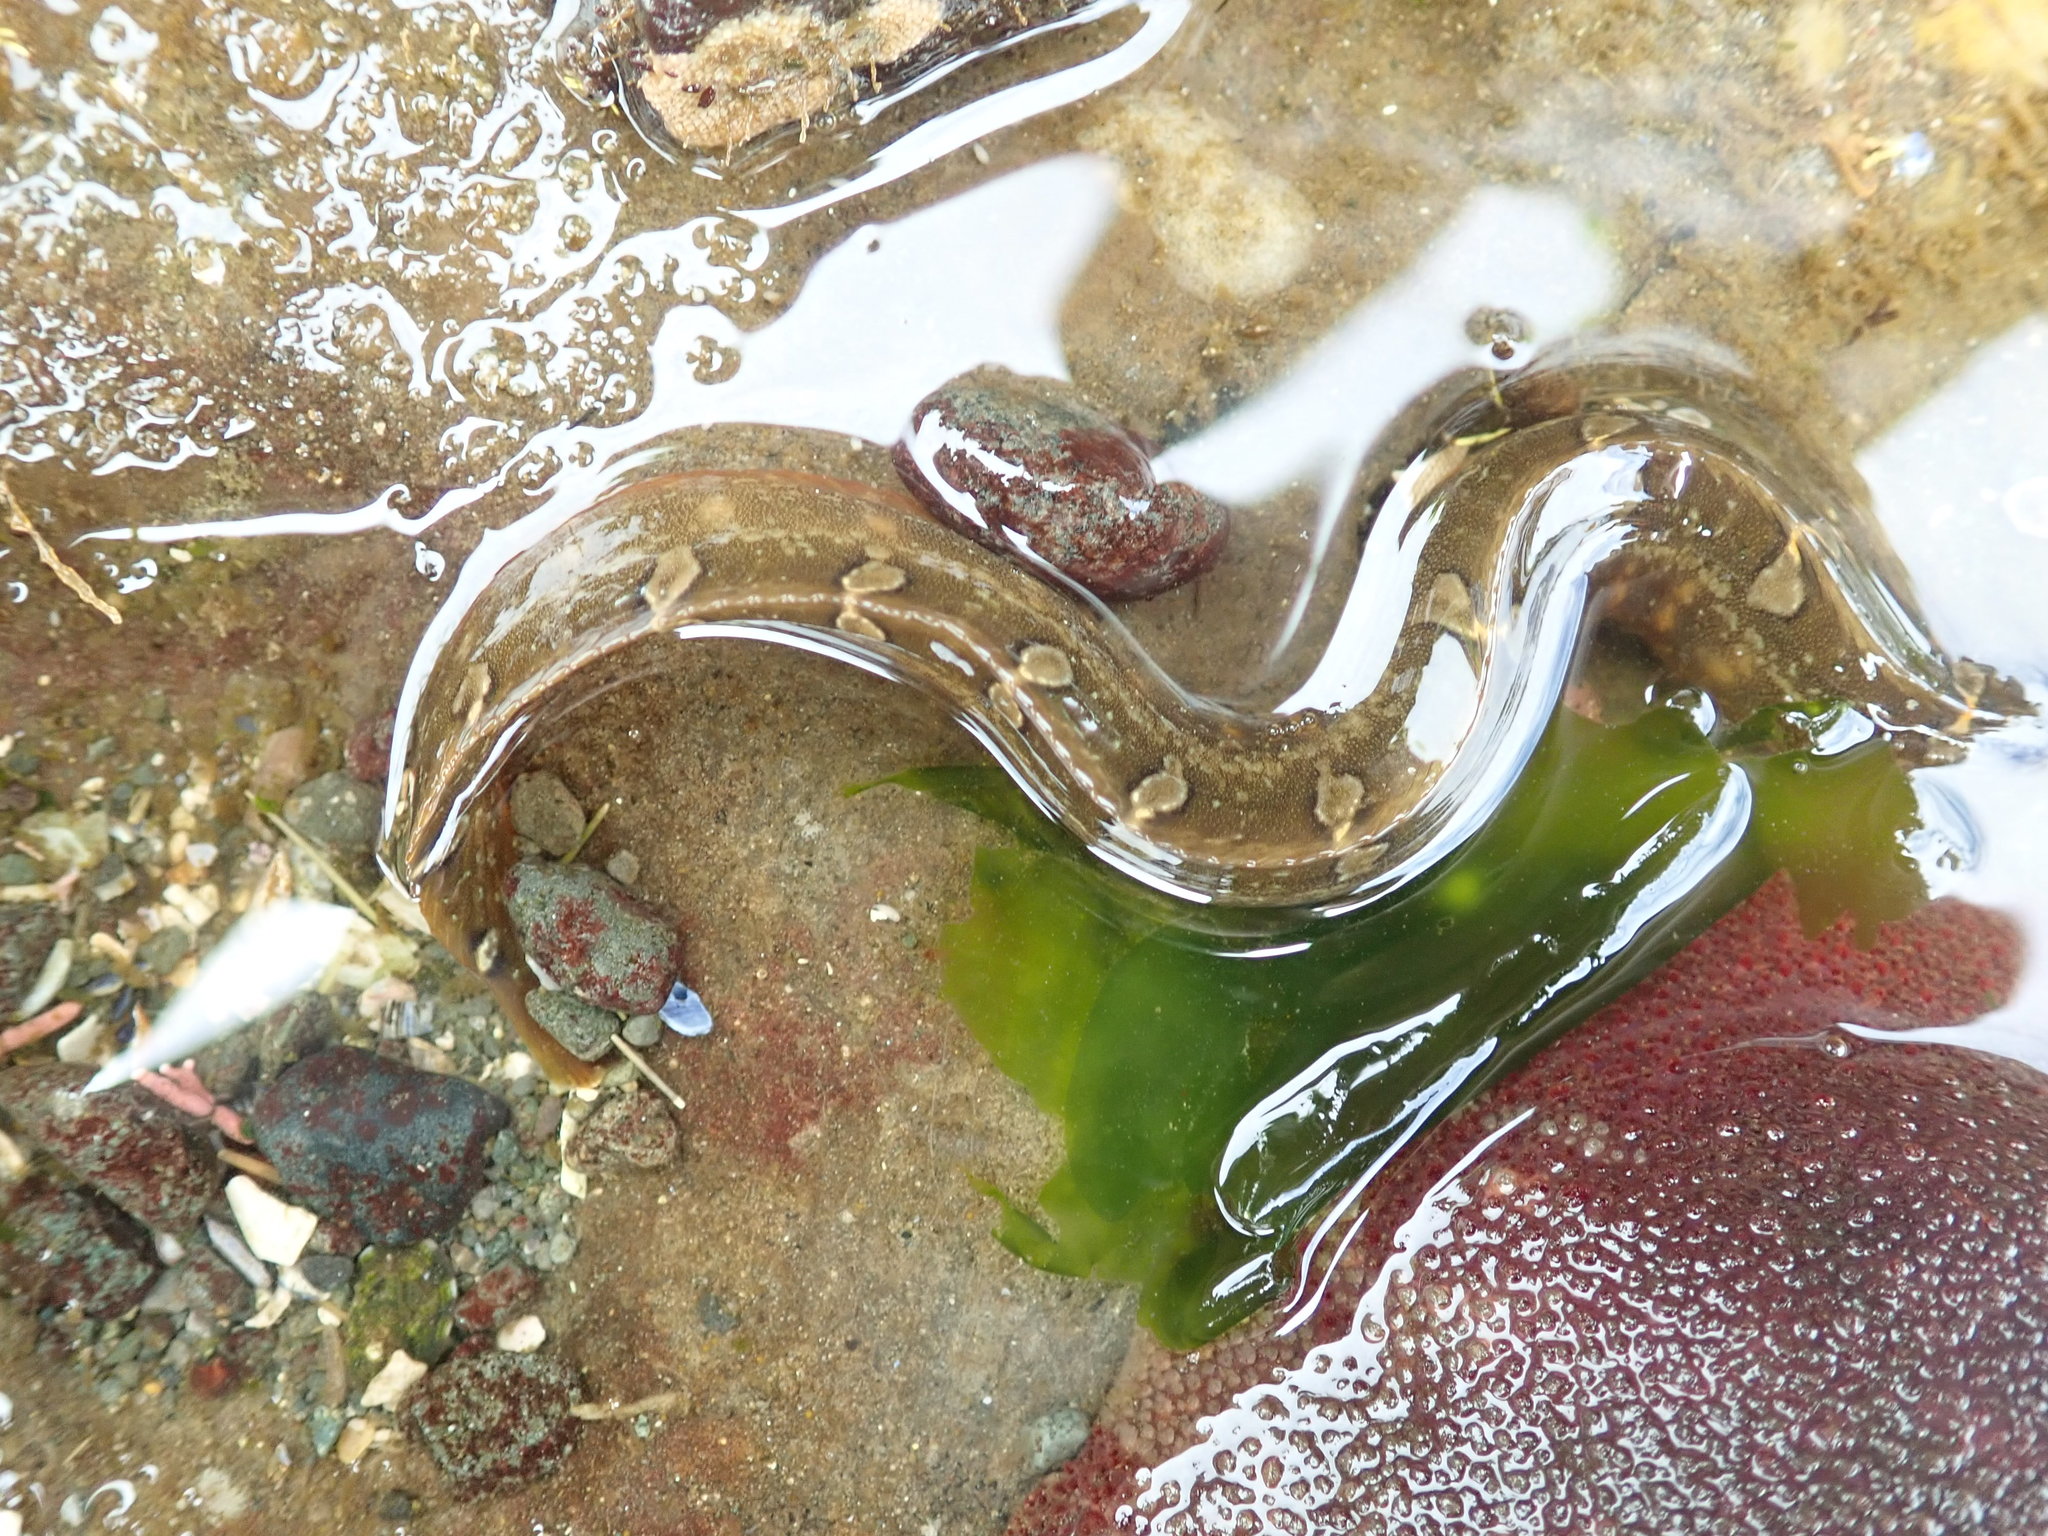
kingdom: Animalia
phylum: Chordata
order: Perciformes
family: Pholidae
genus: Pholis
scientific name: Pholis laeta
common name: Crescent gunnel
